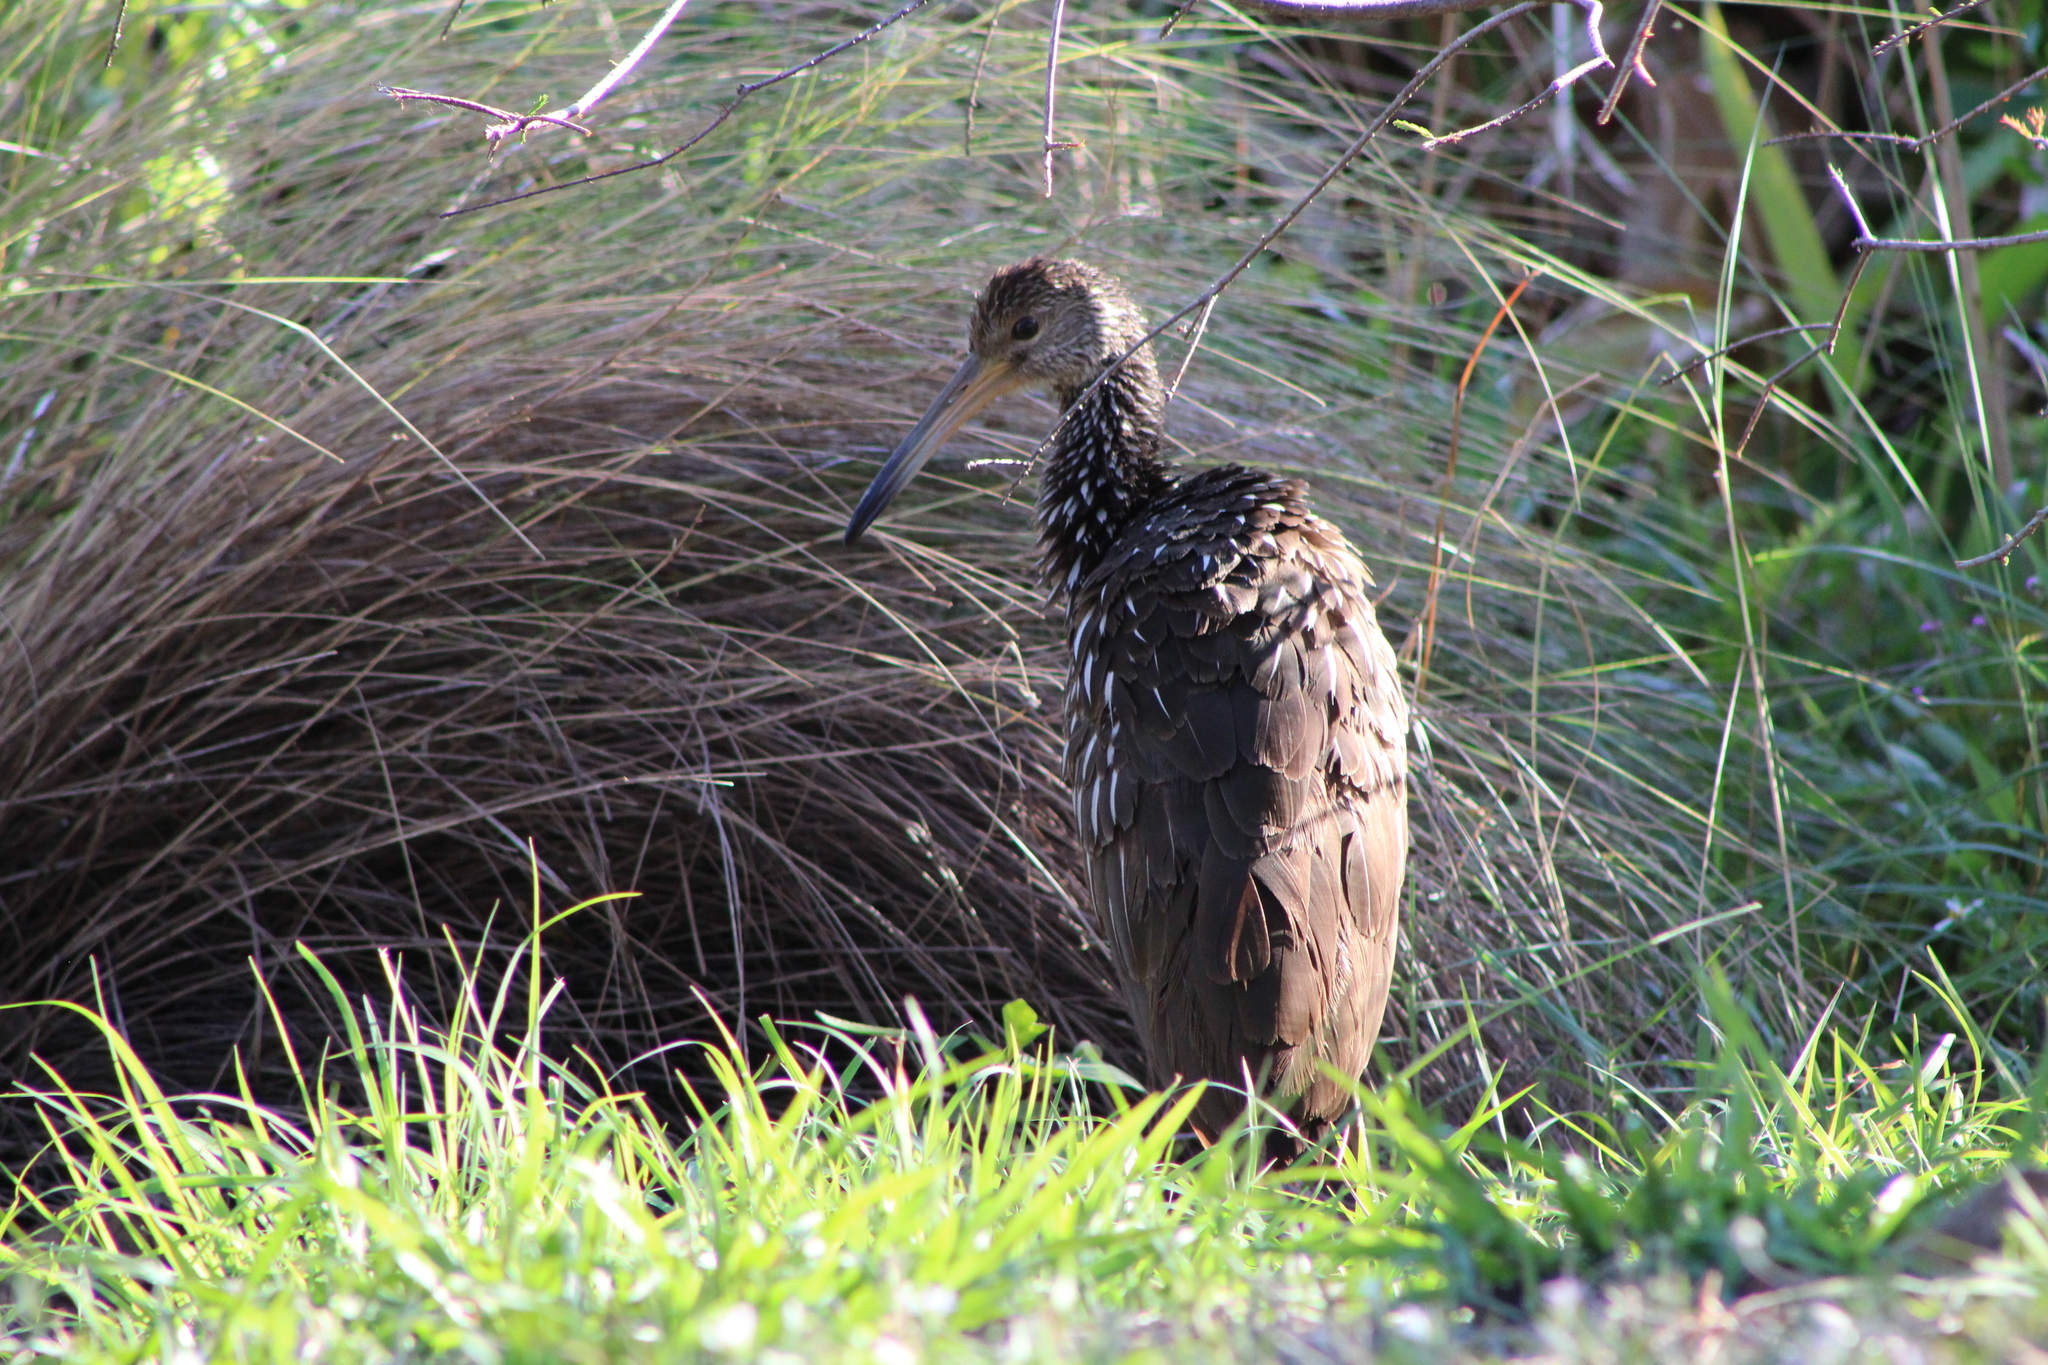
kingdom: Animalia
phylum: Chordata
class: Aves
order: Gruiformes
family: Aramidae
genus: Aramus
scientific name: Aramus guarauna
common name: Limpkin
